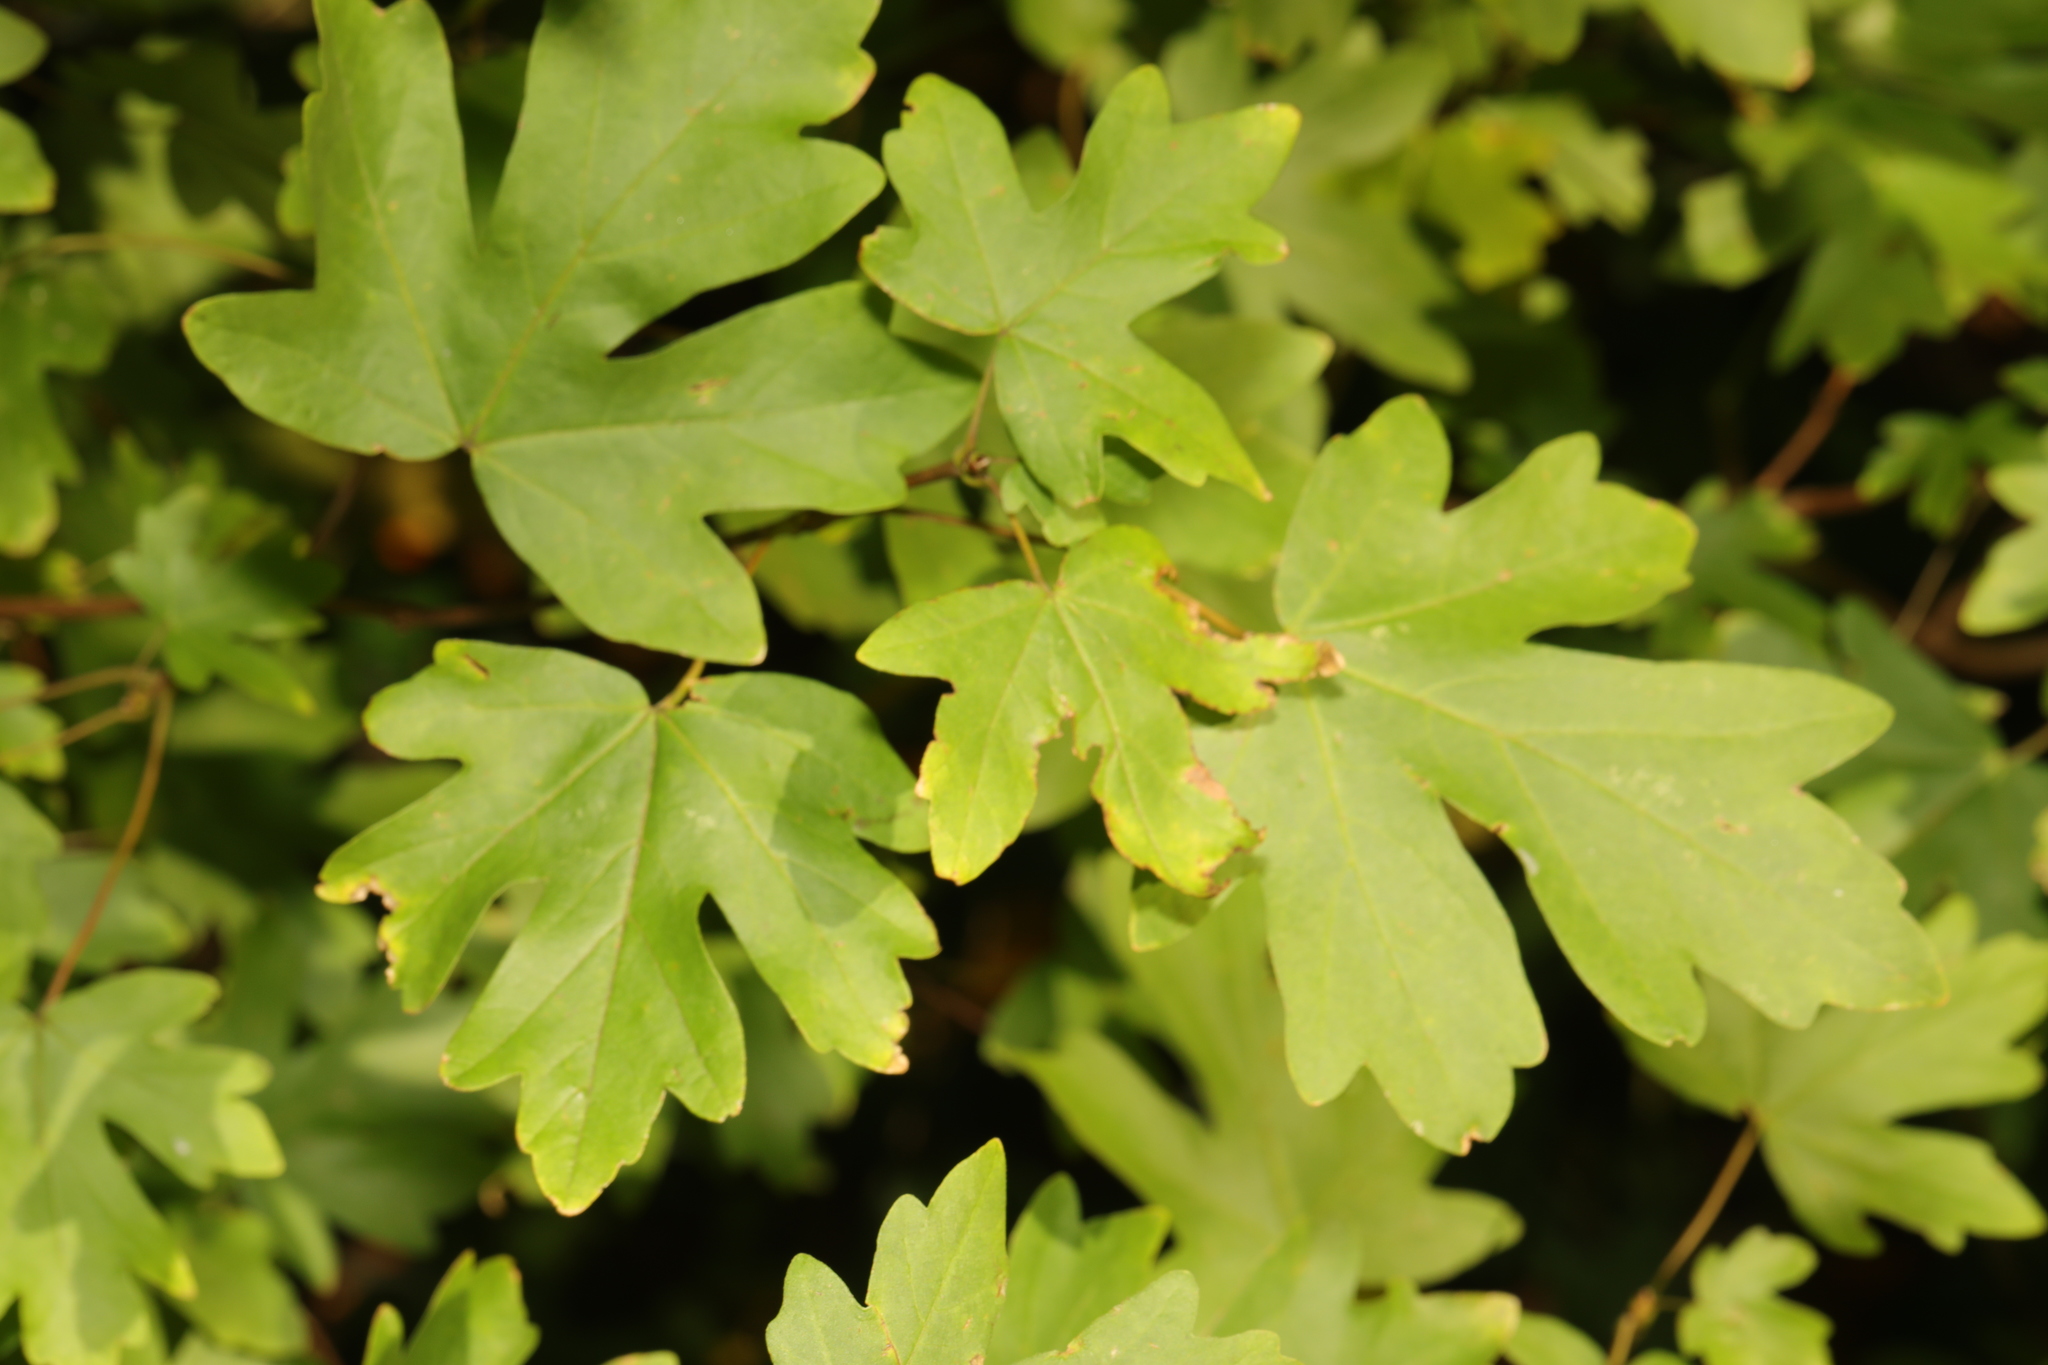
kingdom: Plantae
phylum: Tracheophyta
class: Magnoliopsida
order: Sapindales
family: Sapindaceae
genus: Acer
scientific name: Acer campestre
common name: Field maple
